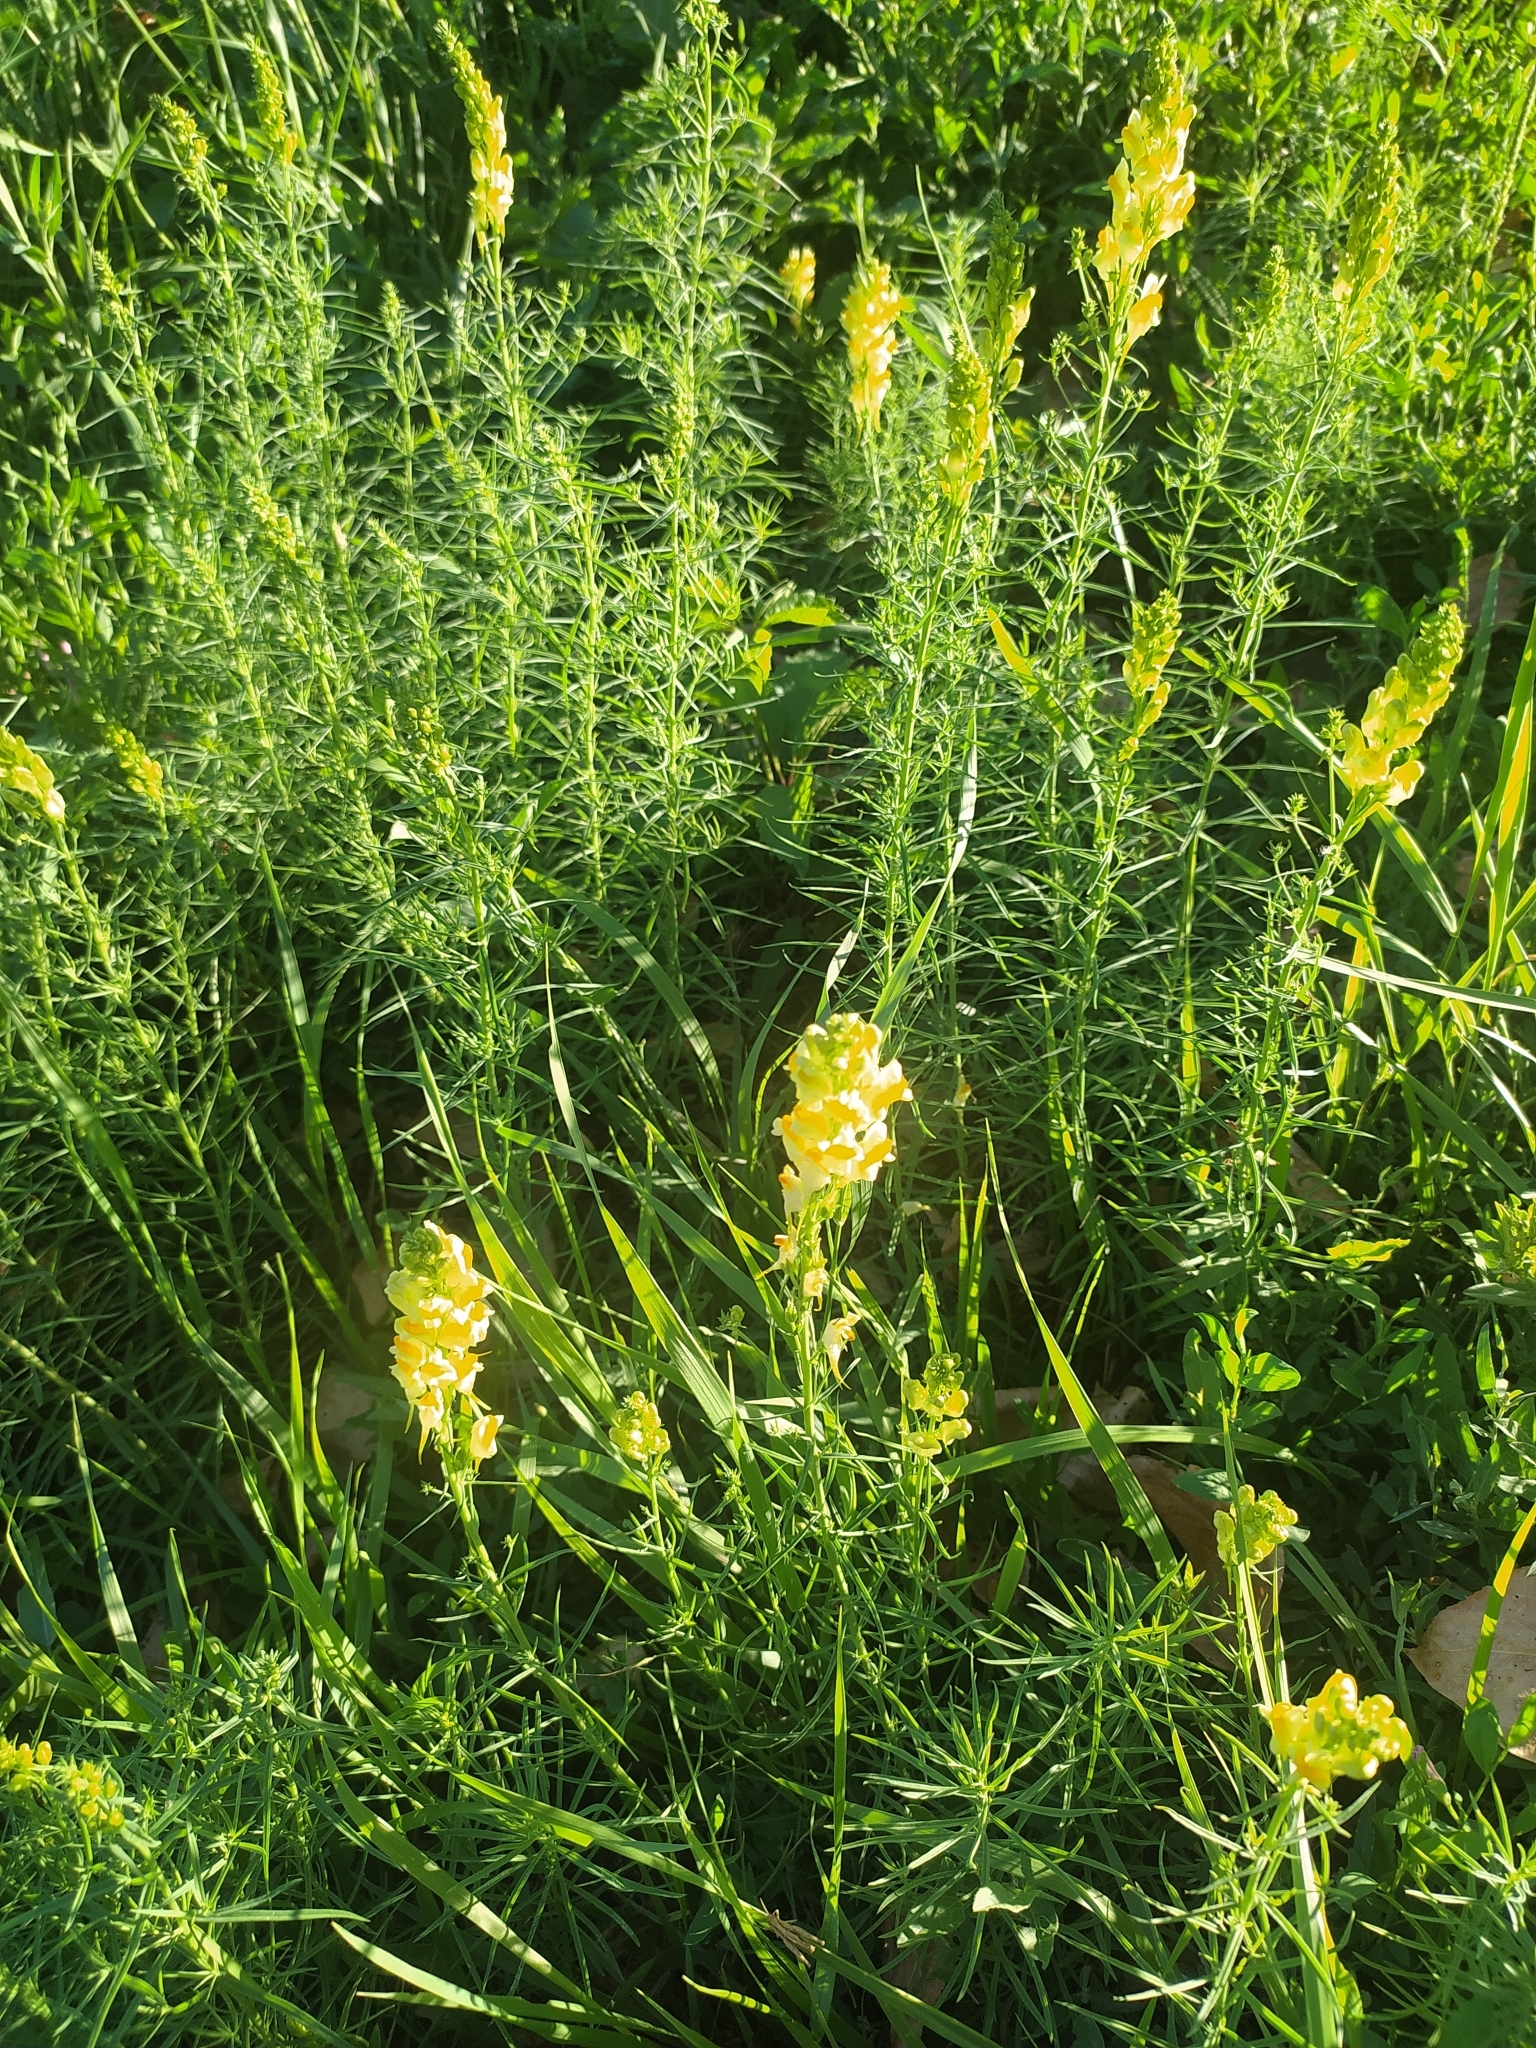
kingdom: Plantae
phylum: Tracheophyta
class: Magnoliopsida
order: Lamiales
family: Plantaginaceae
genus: Linaria
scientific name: Linaria vulgaris
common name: Butter and eggs
